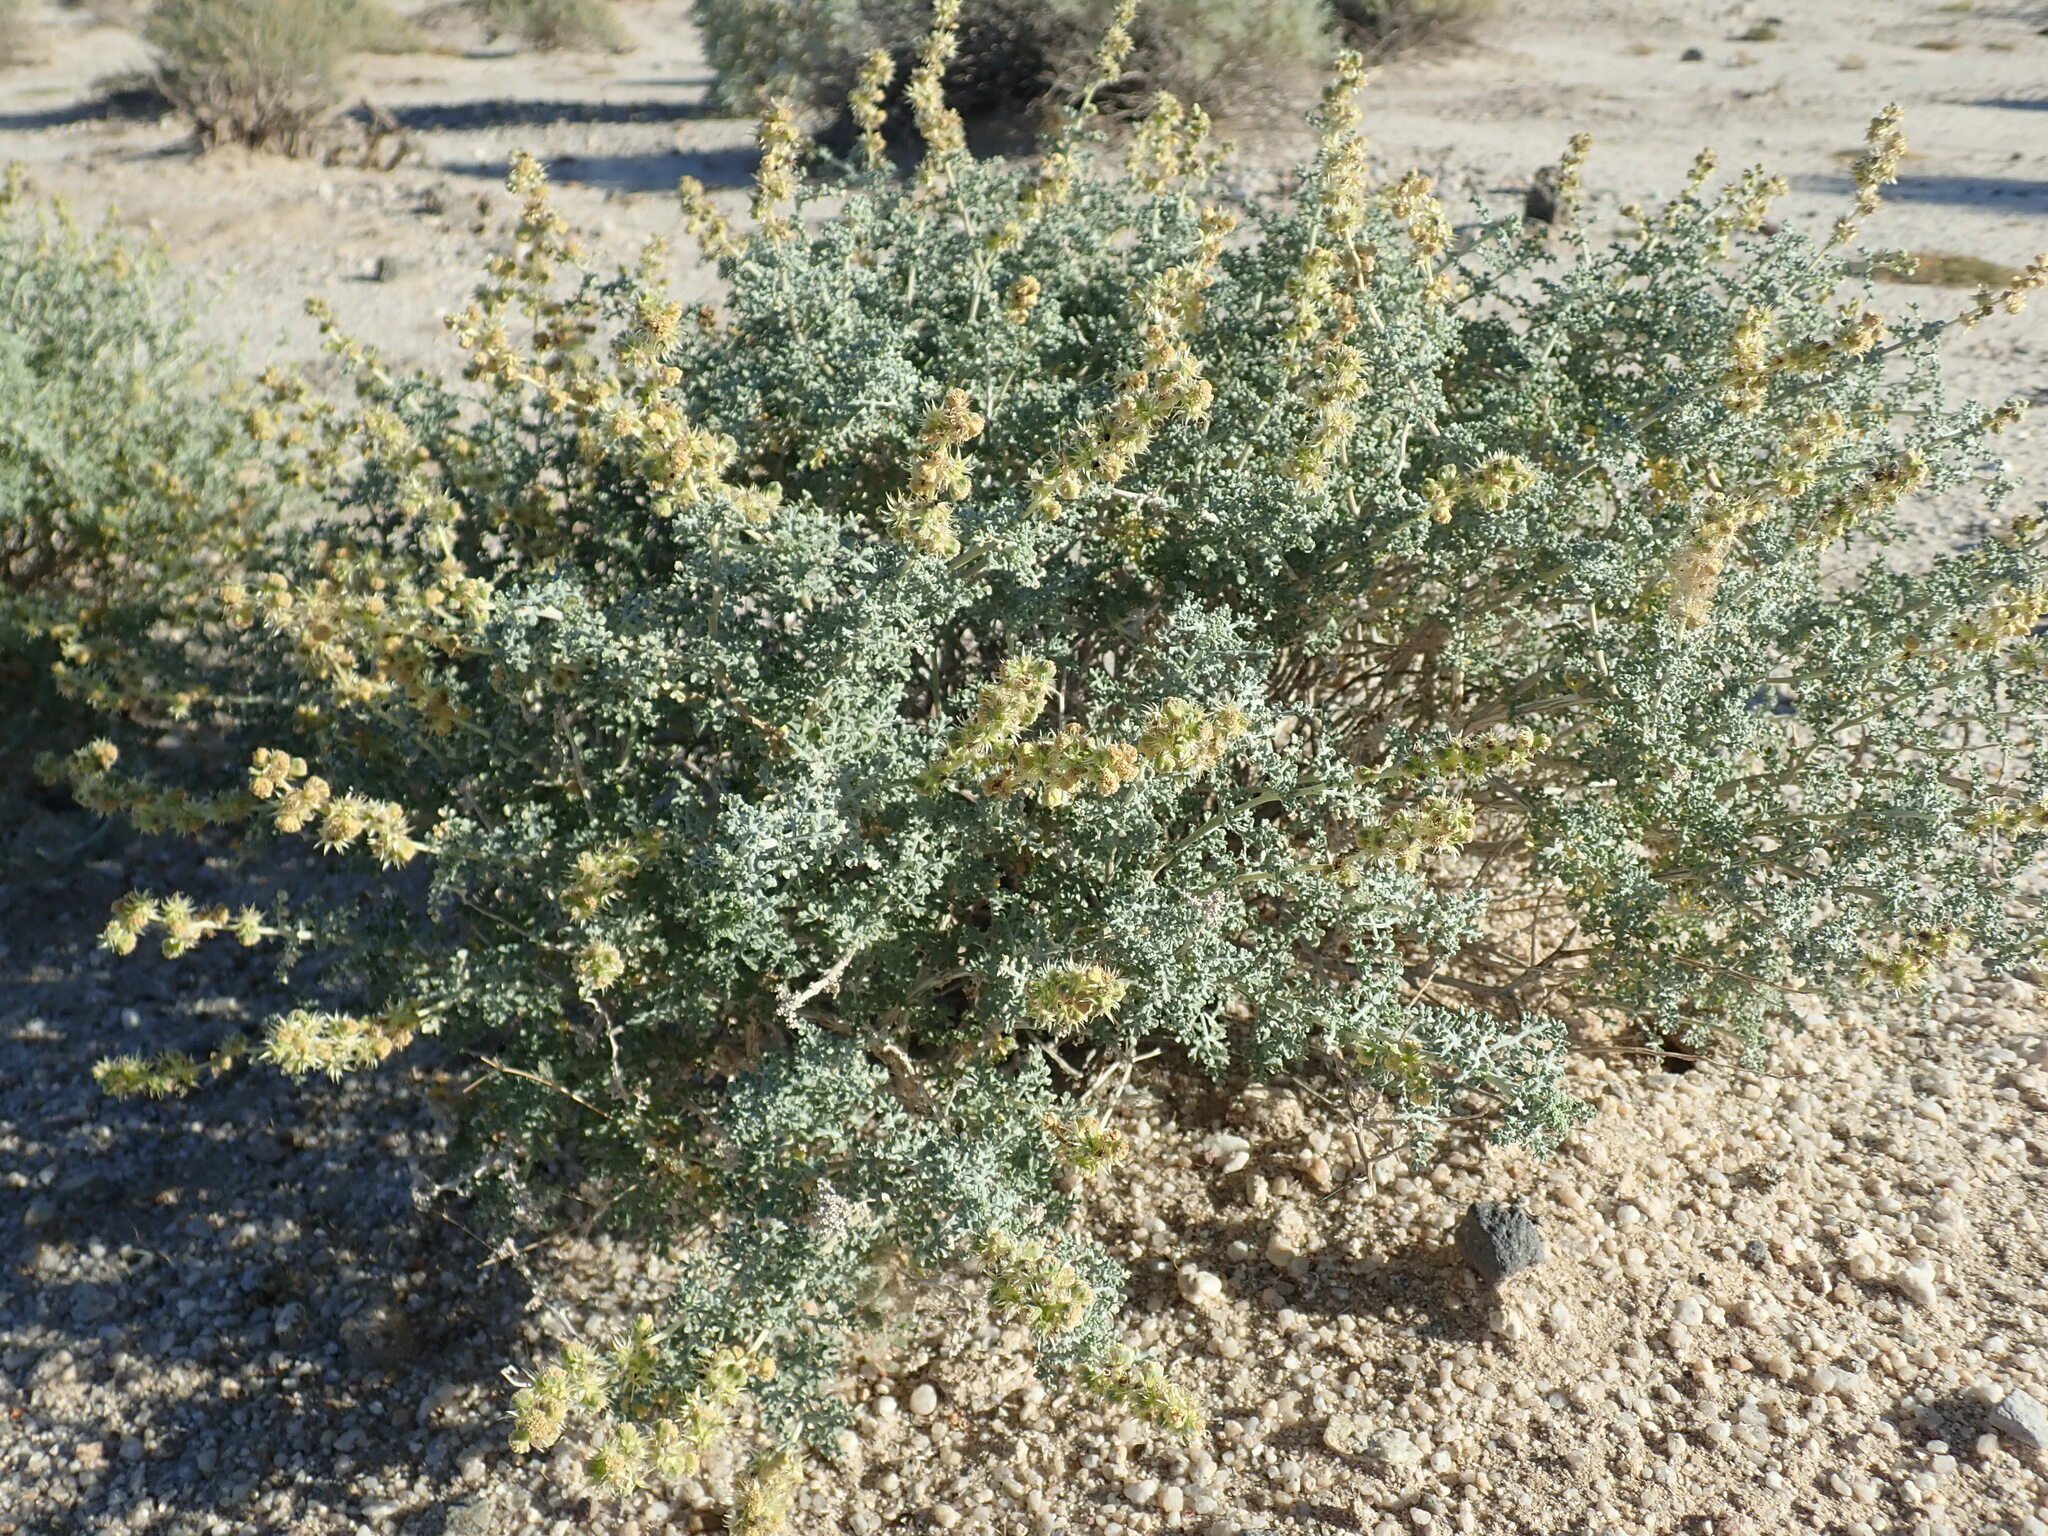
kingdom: Plantae
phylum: Tracheophyta
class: Magnoliopsida
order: Asterales
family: Asteraceae
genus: Ambrosia
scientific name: Ambrosia dumosa
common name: Bur-sage
